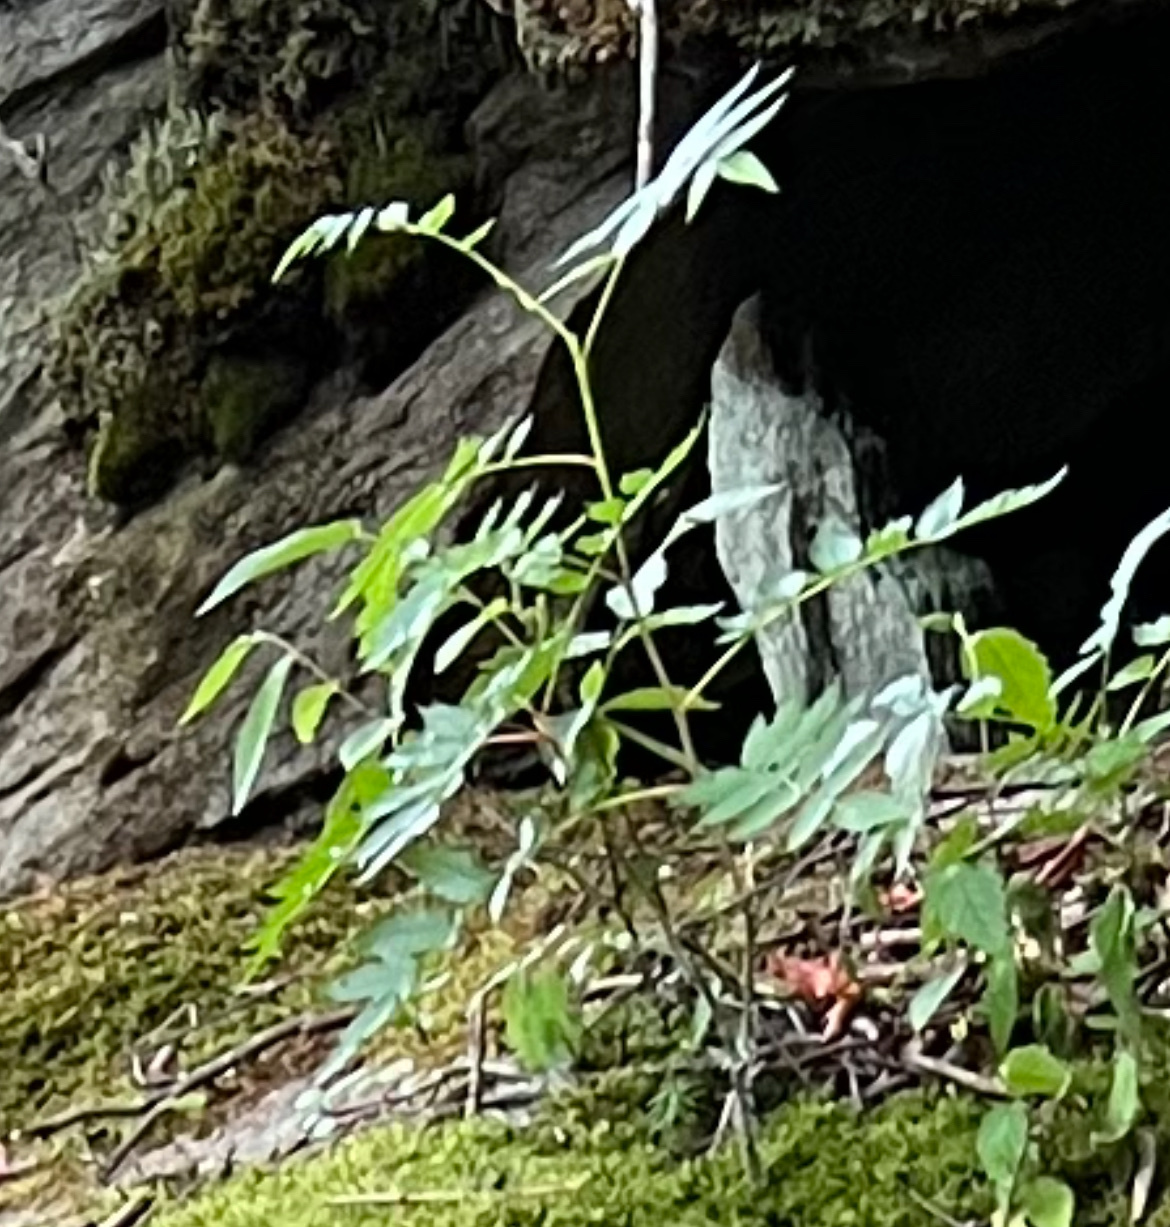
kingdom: Plantae
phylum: Tracheophyta
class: Magnoliopsida
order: Rosales
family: Rosaceae
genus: Sorbus
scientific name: Sorbus americana
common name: American mountain-ash
